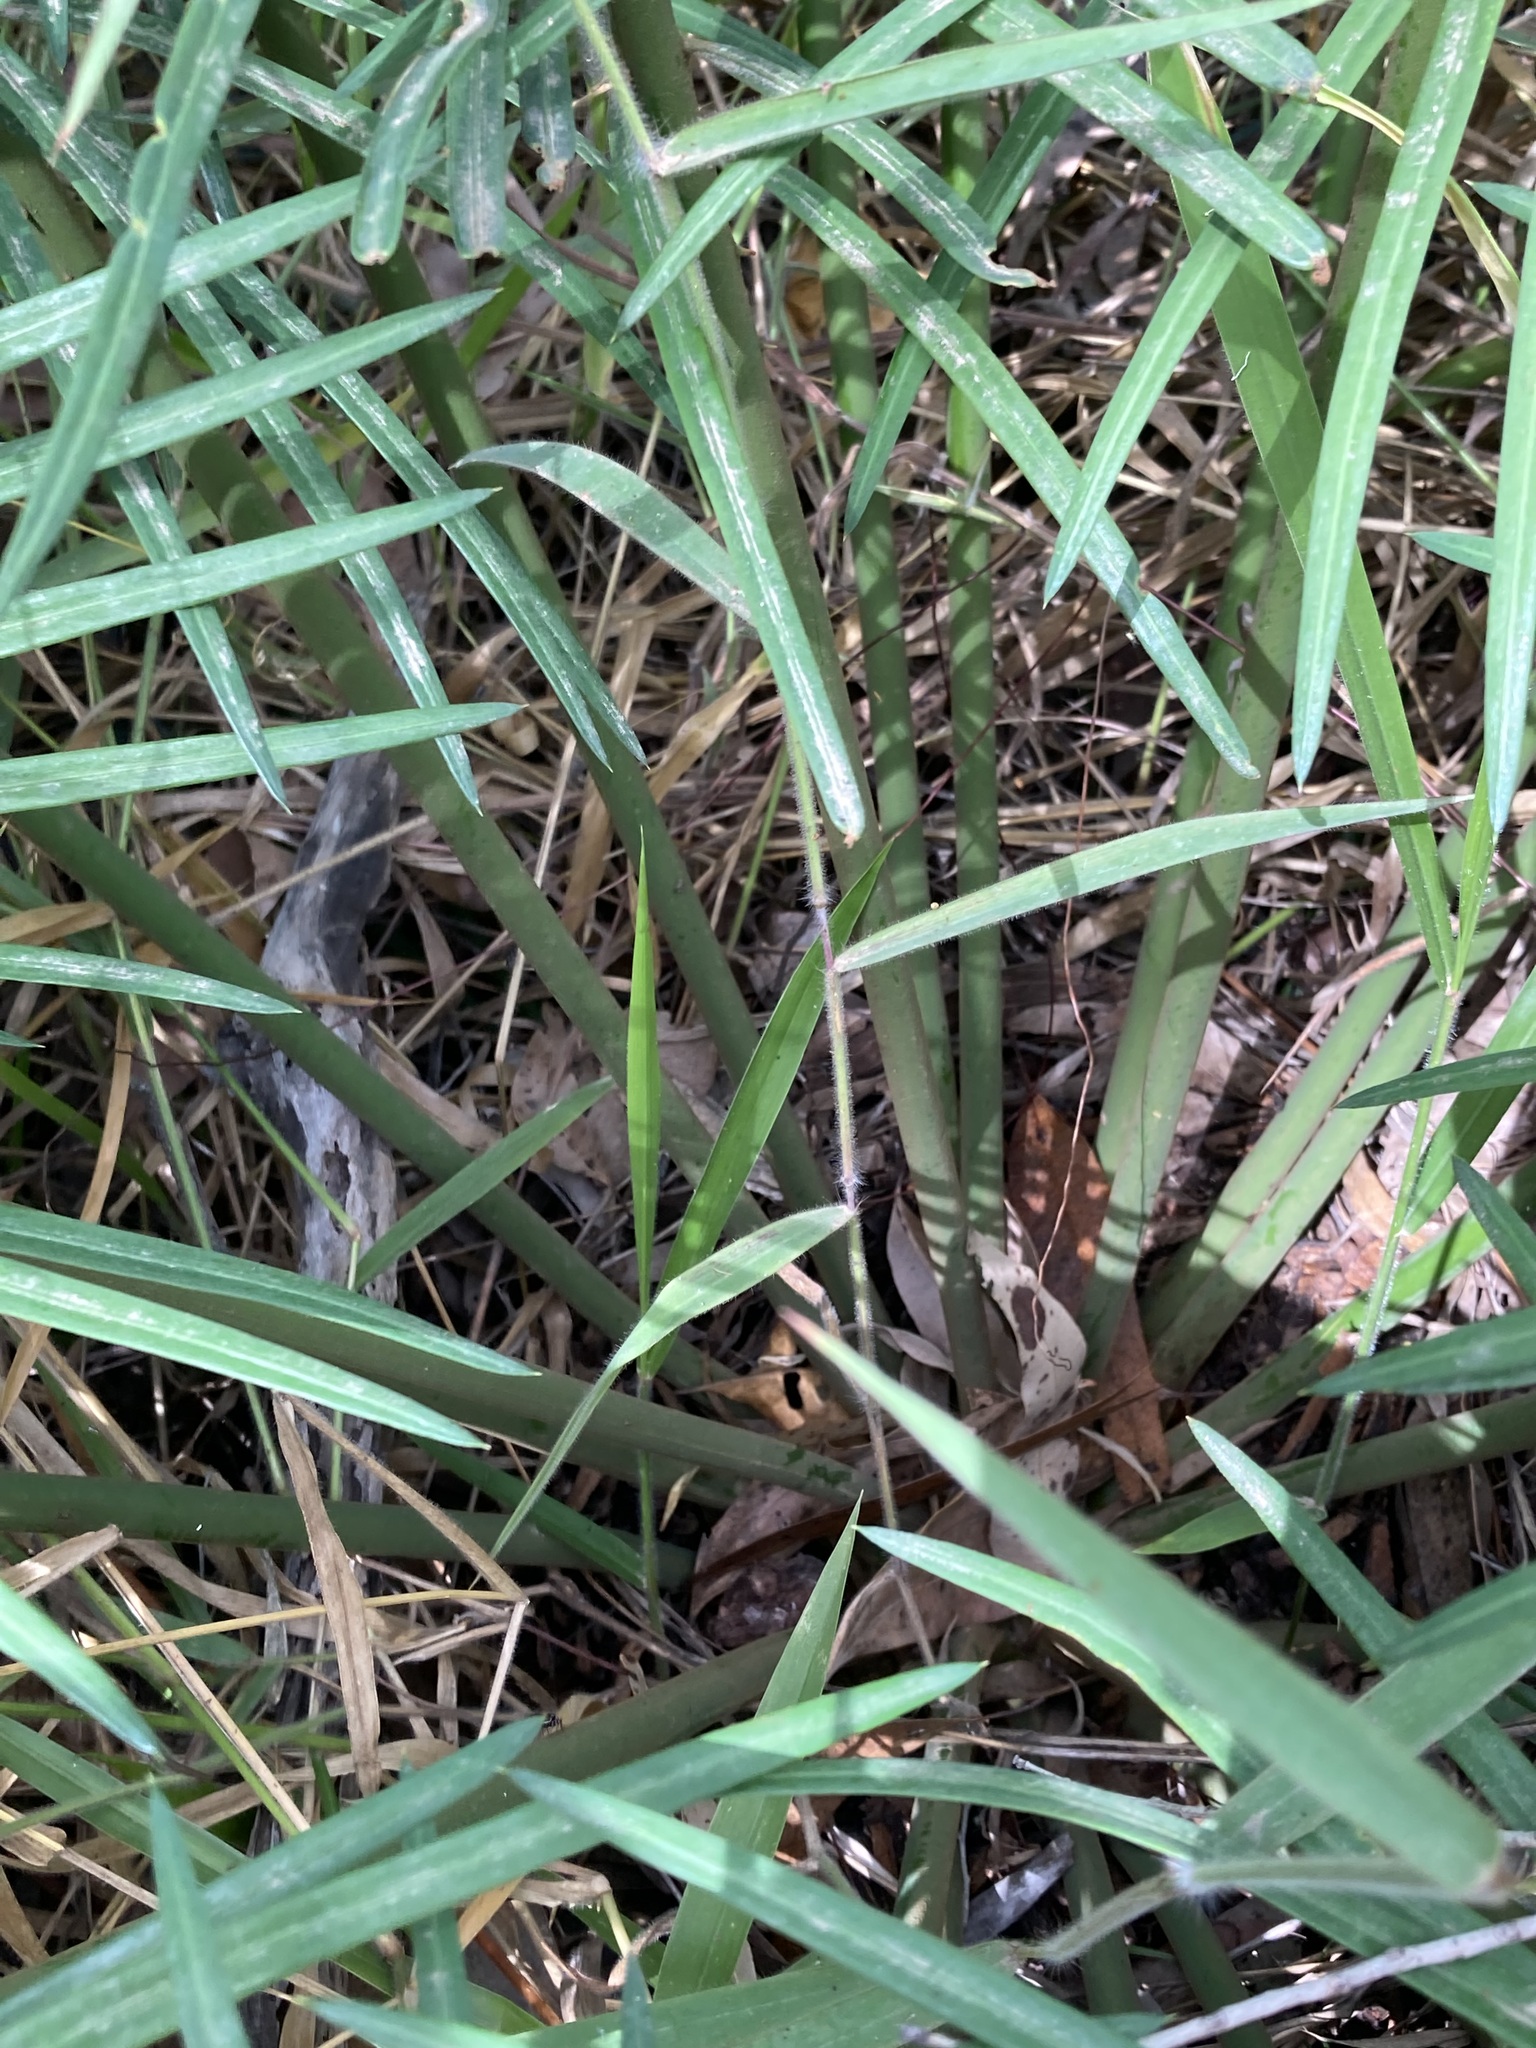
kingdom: Plantae
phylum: Tracheophyta
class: Cycadopsida
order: Cycadales
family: Cycadaceae
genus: Cycas
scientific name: Cycas media
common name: Queensland cycas
